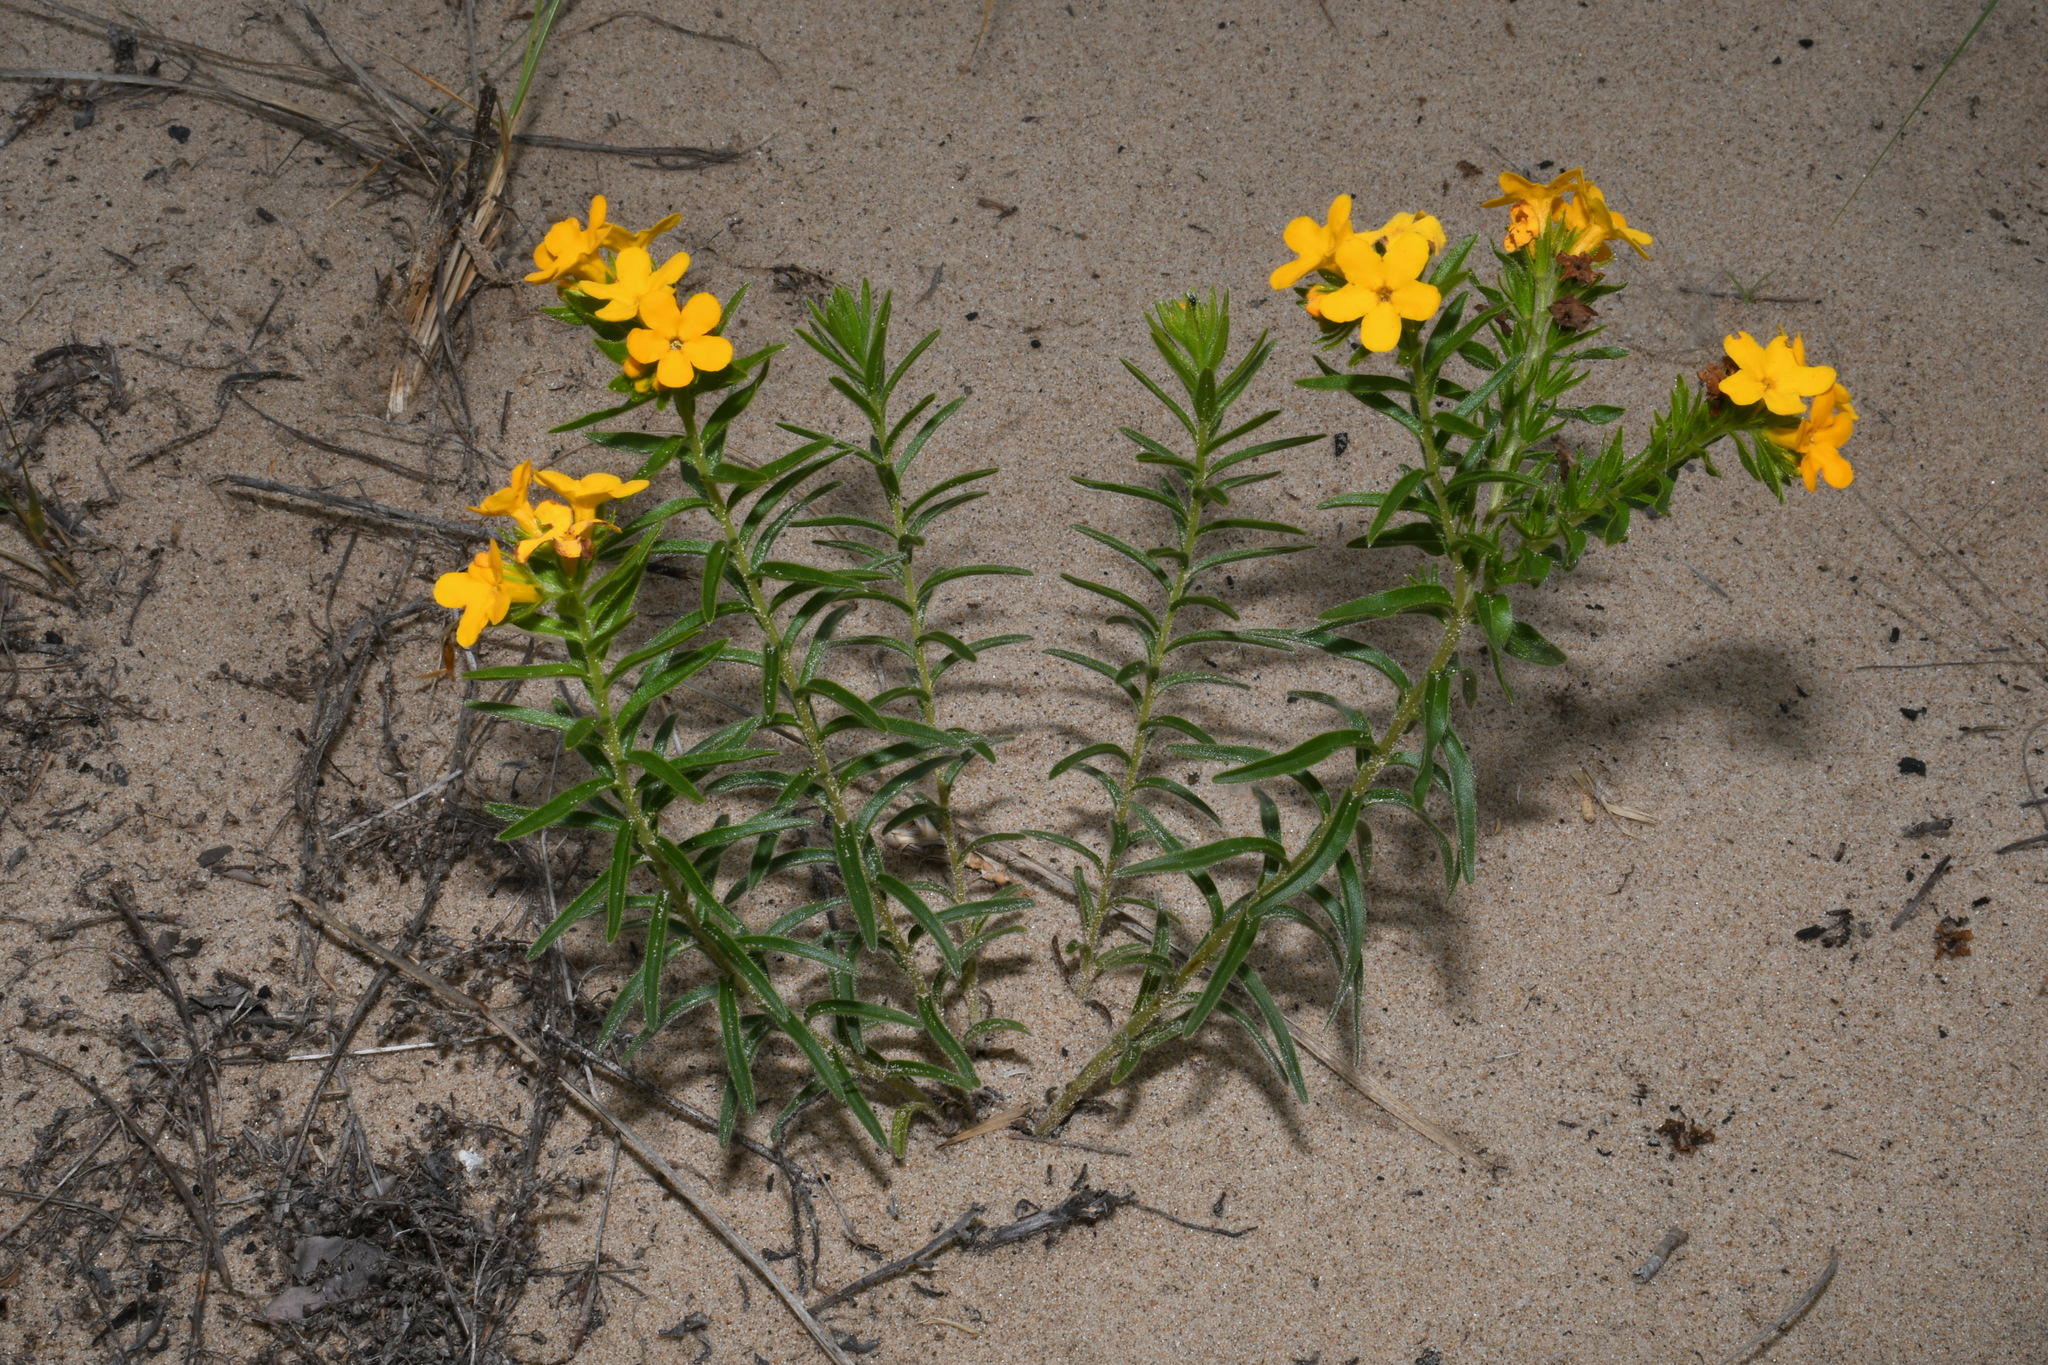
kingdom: Plantae
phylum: Tracheophyta
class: Magnoliopsida
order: Boraginales
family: Boraginaceae
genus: Lithospermum
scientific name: Lithospermum caroliniense
